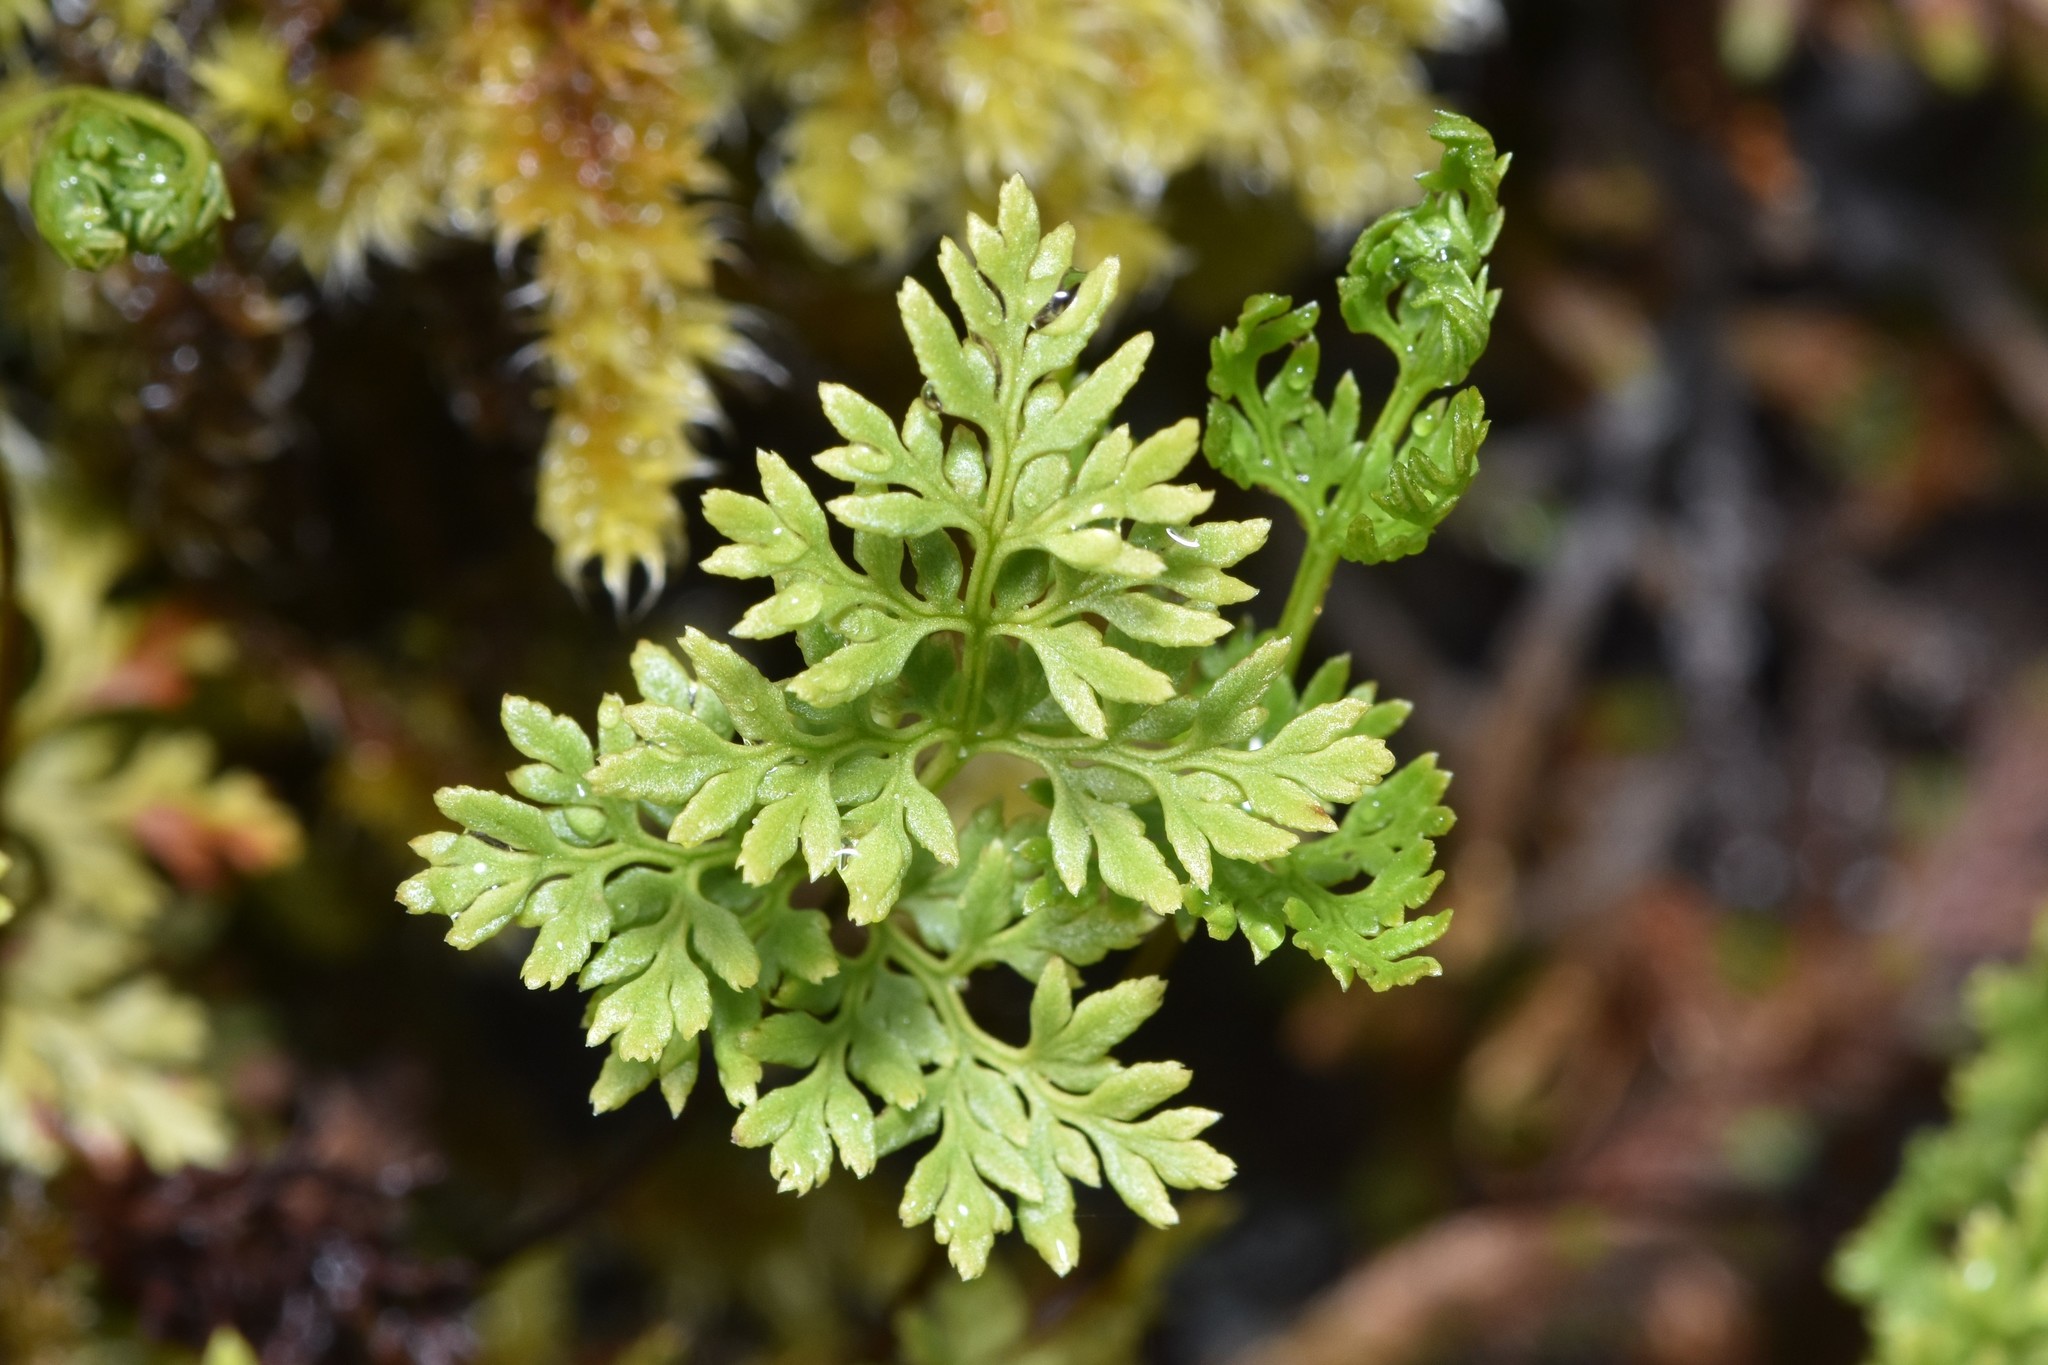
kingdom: Plantae
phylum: Tracheophyta
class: Polypodiopsida
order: Polypodiales
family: Pteridaceae
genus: Aspidotis
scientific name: Aspidotis densa
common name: Indian's dream
